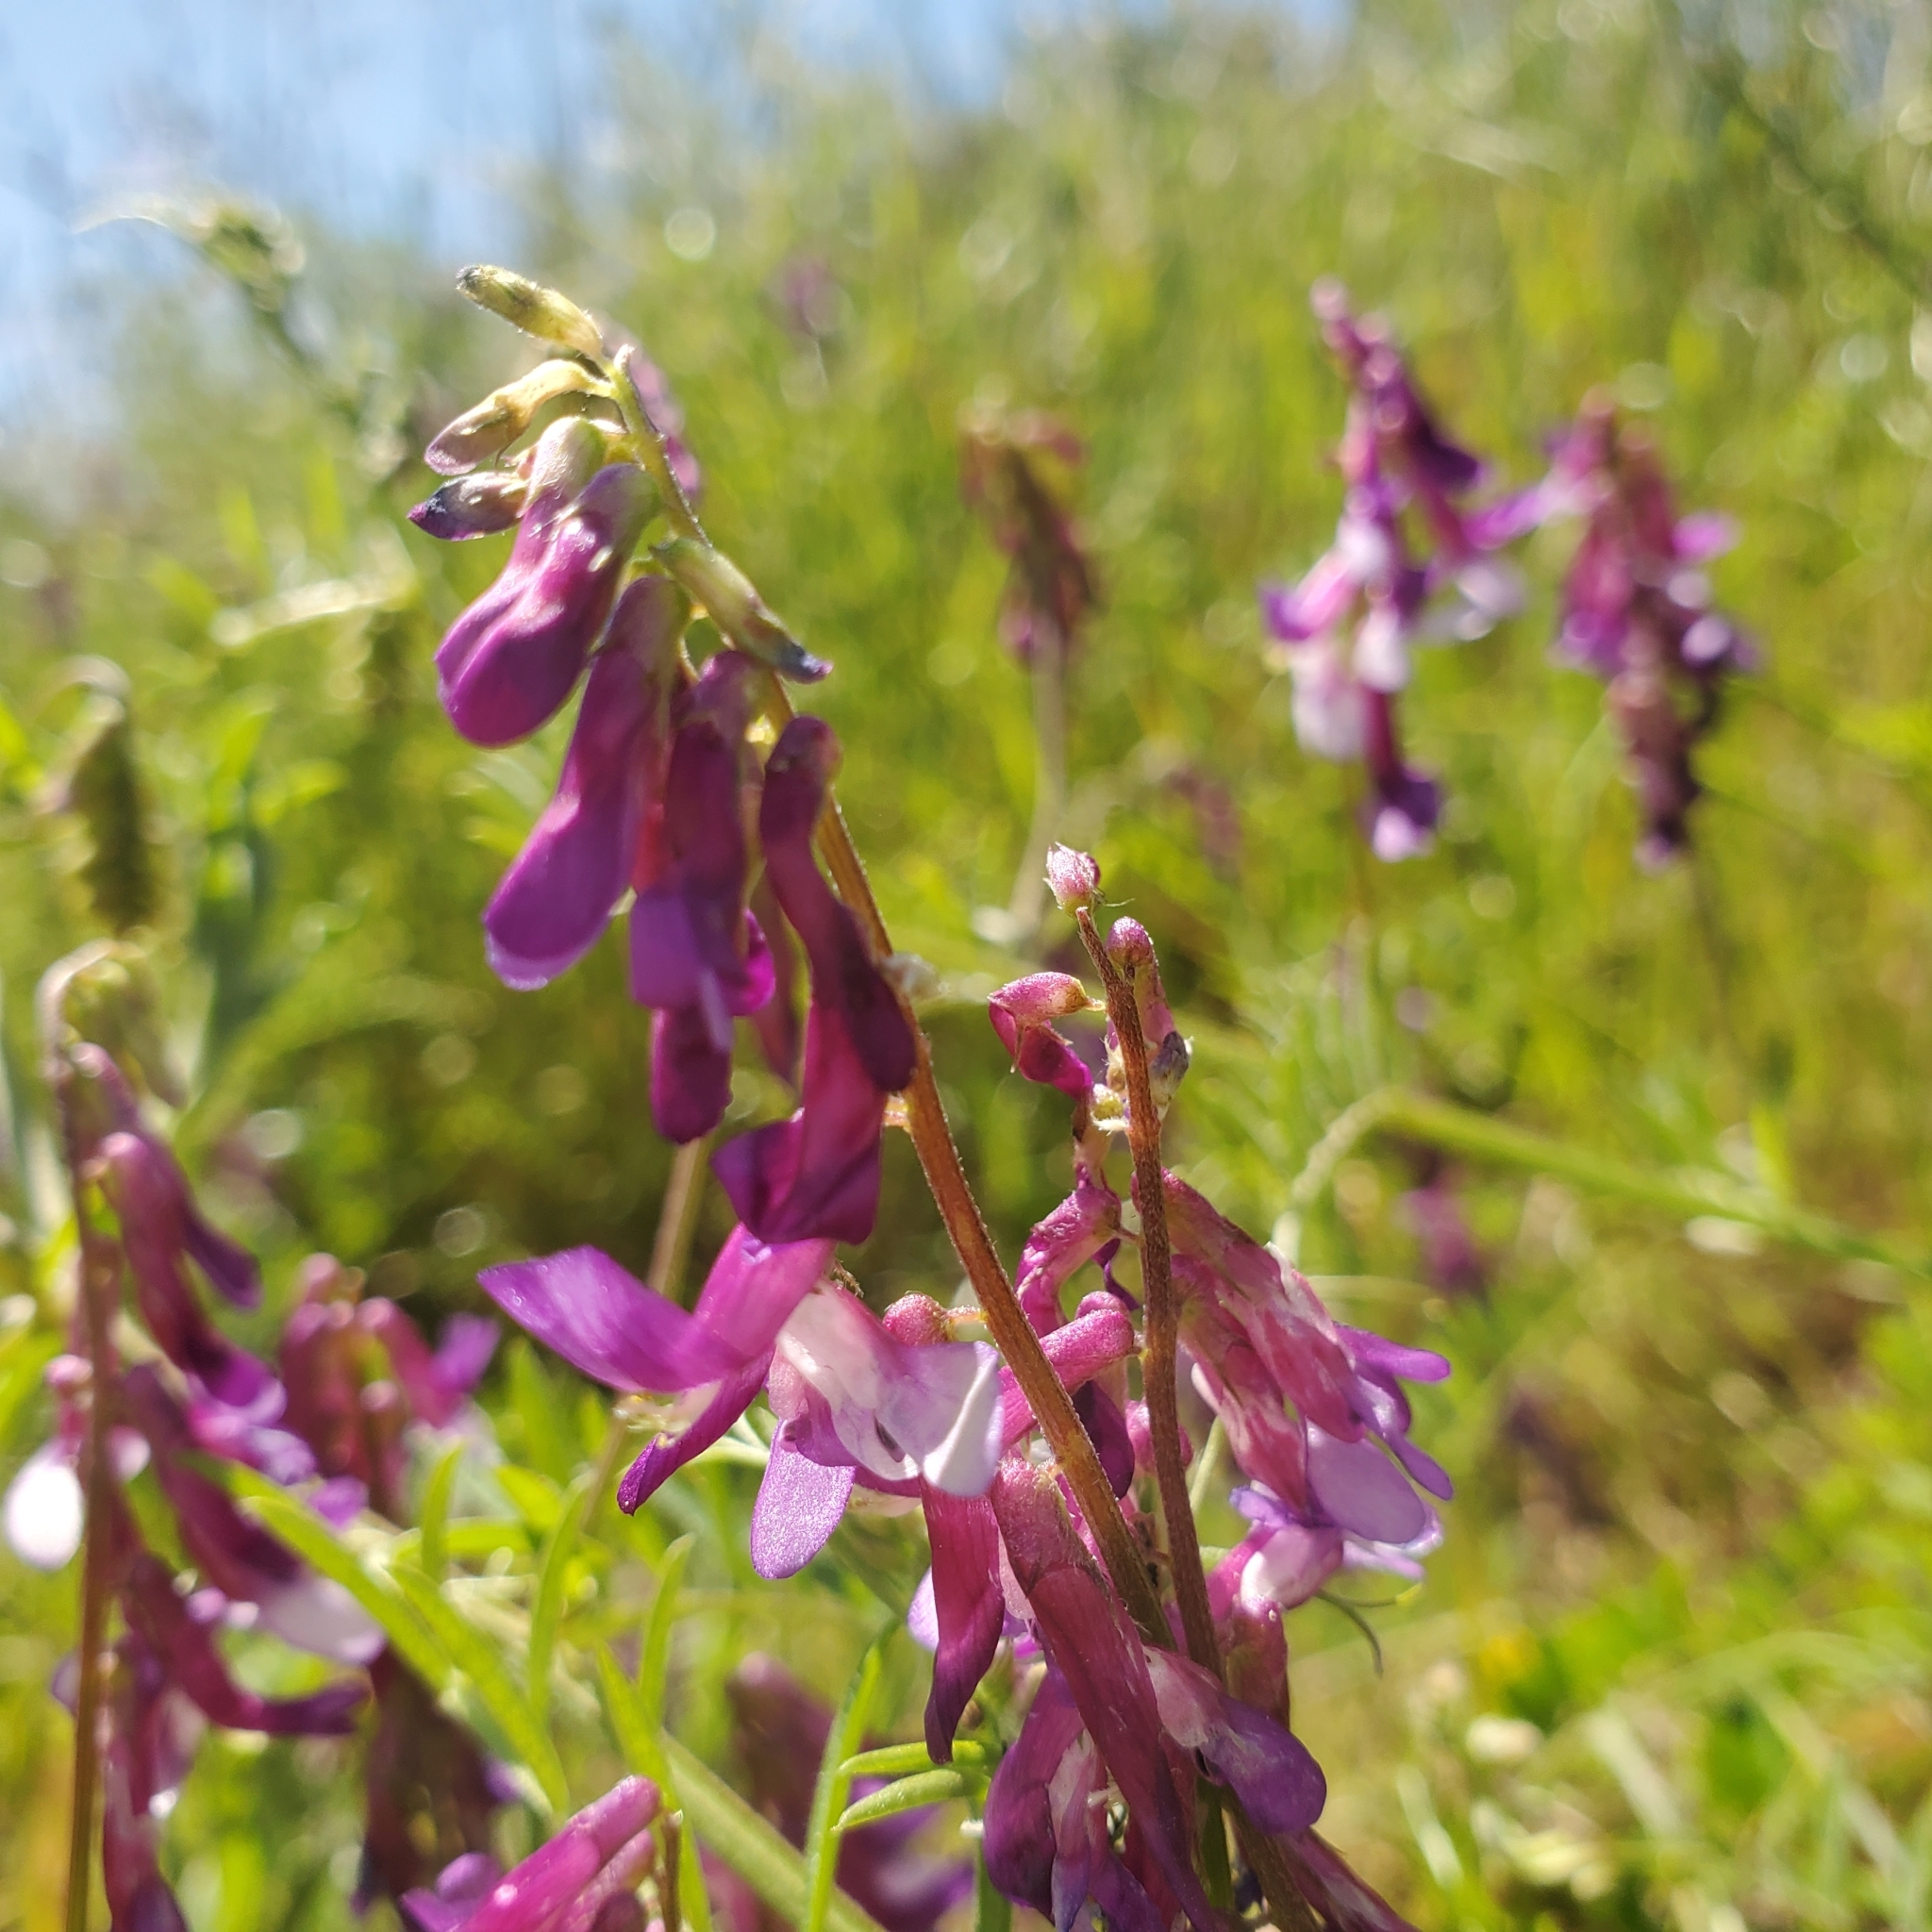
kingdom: Plantae
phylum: Tracheophyta
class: Magnoliopsida
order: Fabales
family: Fabaceae
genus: Vicia
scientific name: Vicia villosa
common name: Fodder vetch
